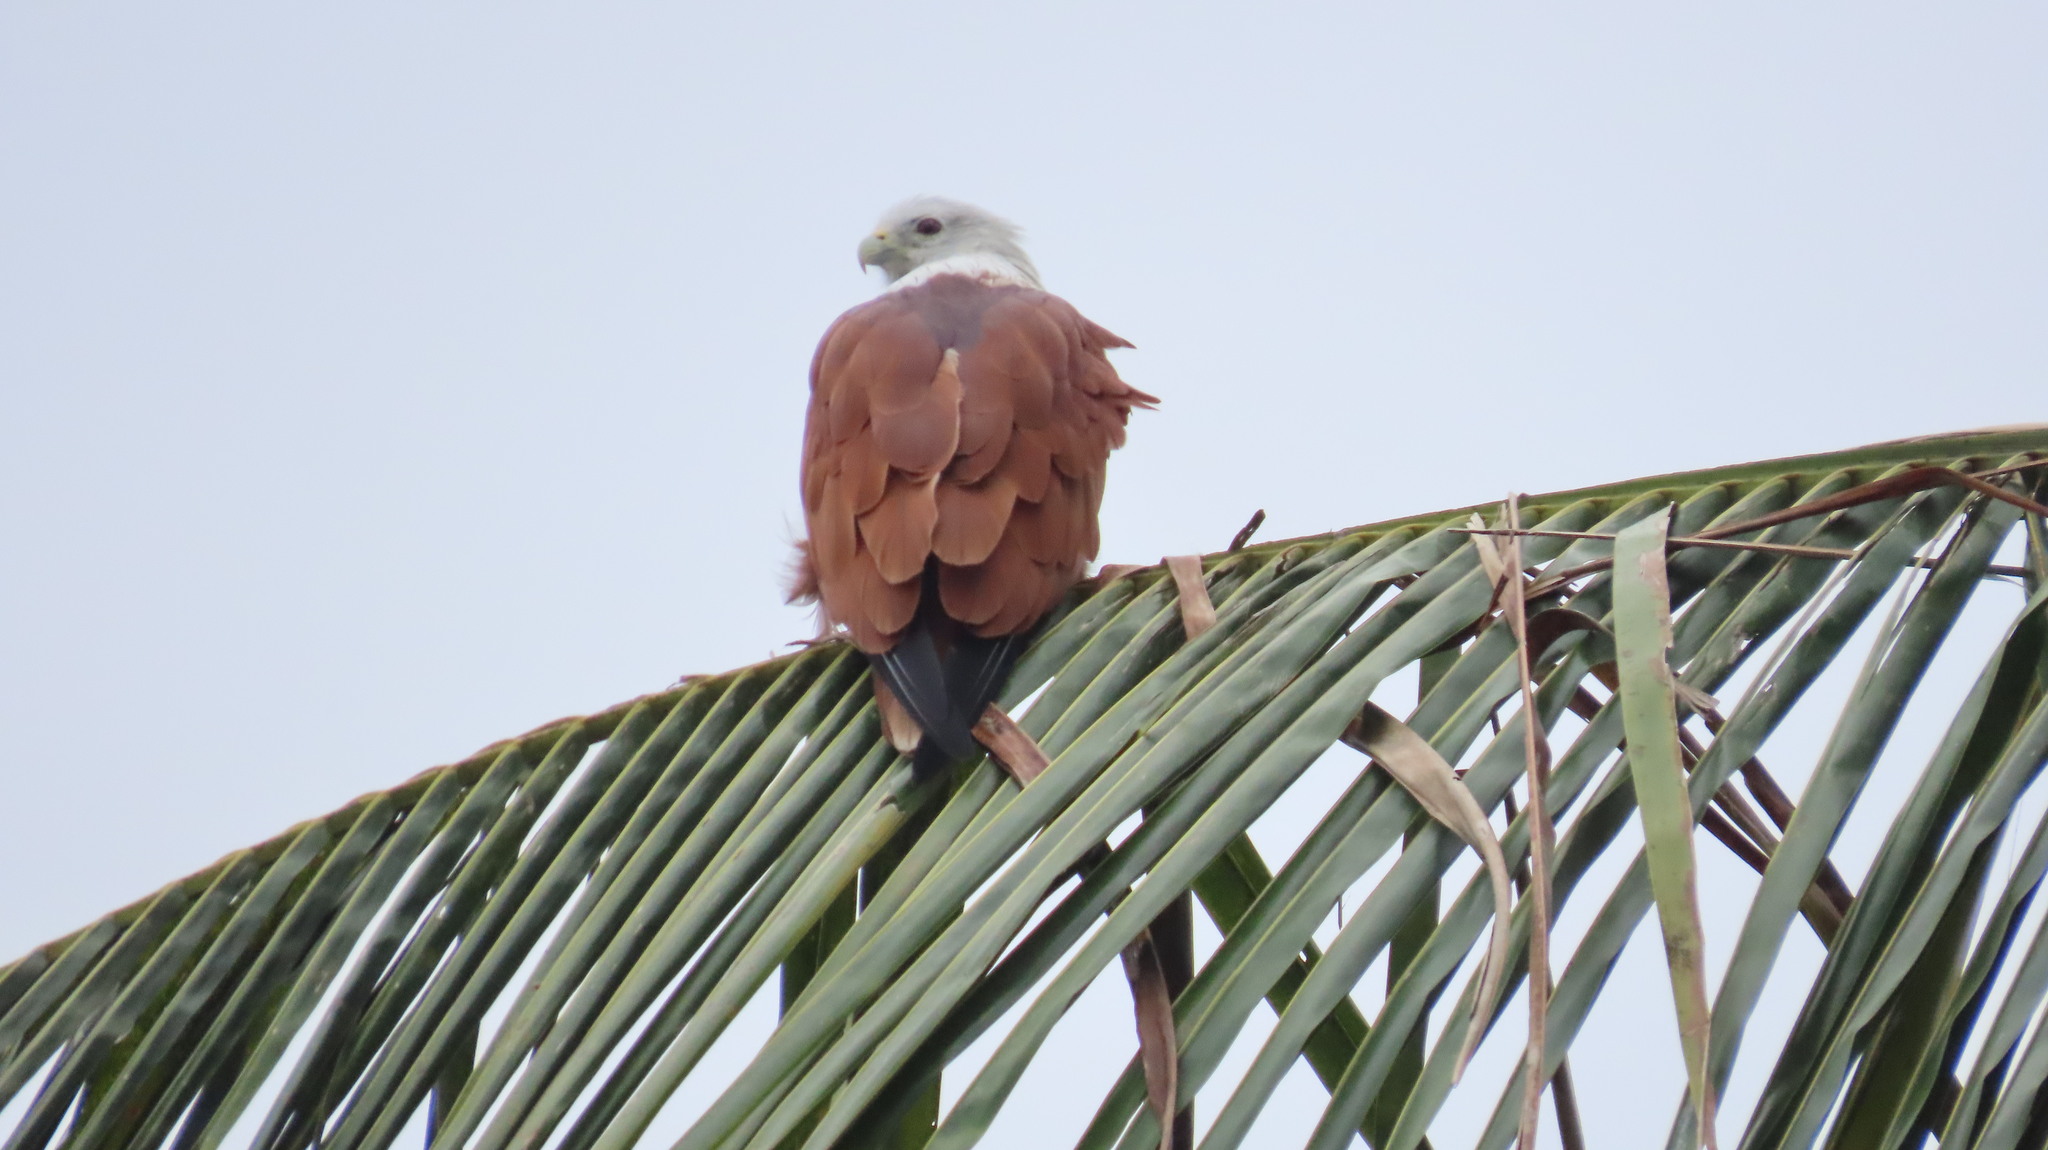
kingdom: Animalia
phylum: Chordata
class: Aves
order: Accipitriformes
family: Accipitridae
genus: Haliastur
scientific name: Haliastur indus
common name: Brahminy kite
